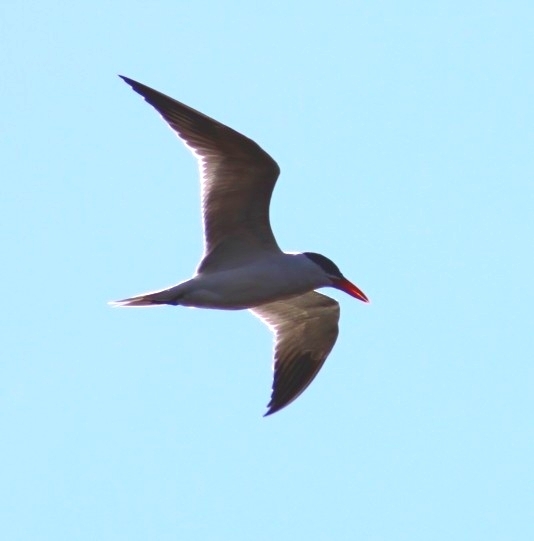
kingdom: Animalia
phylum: Chordata
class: Aves
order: Charadriiformes
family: Laridae
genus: Hydroprogne
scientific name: Hydroprogne caspia
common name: Caspian tern
